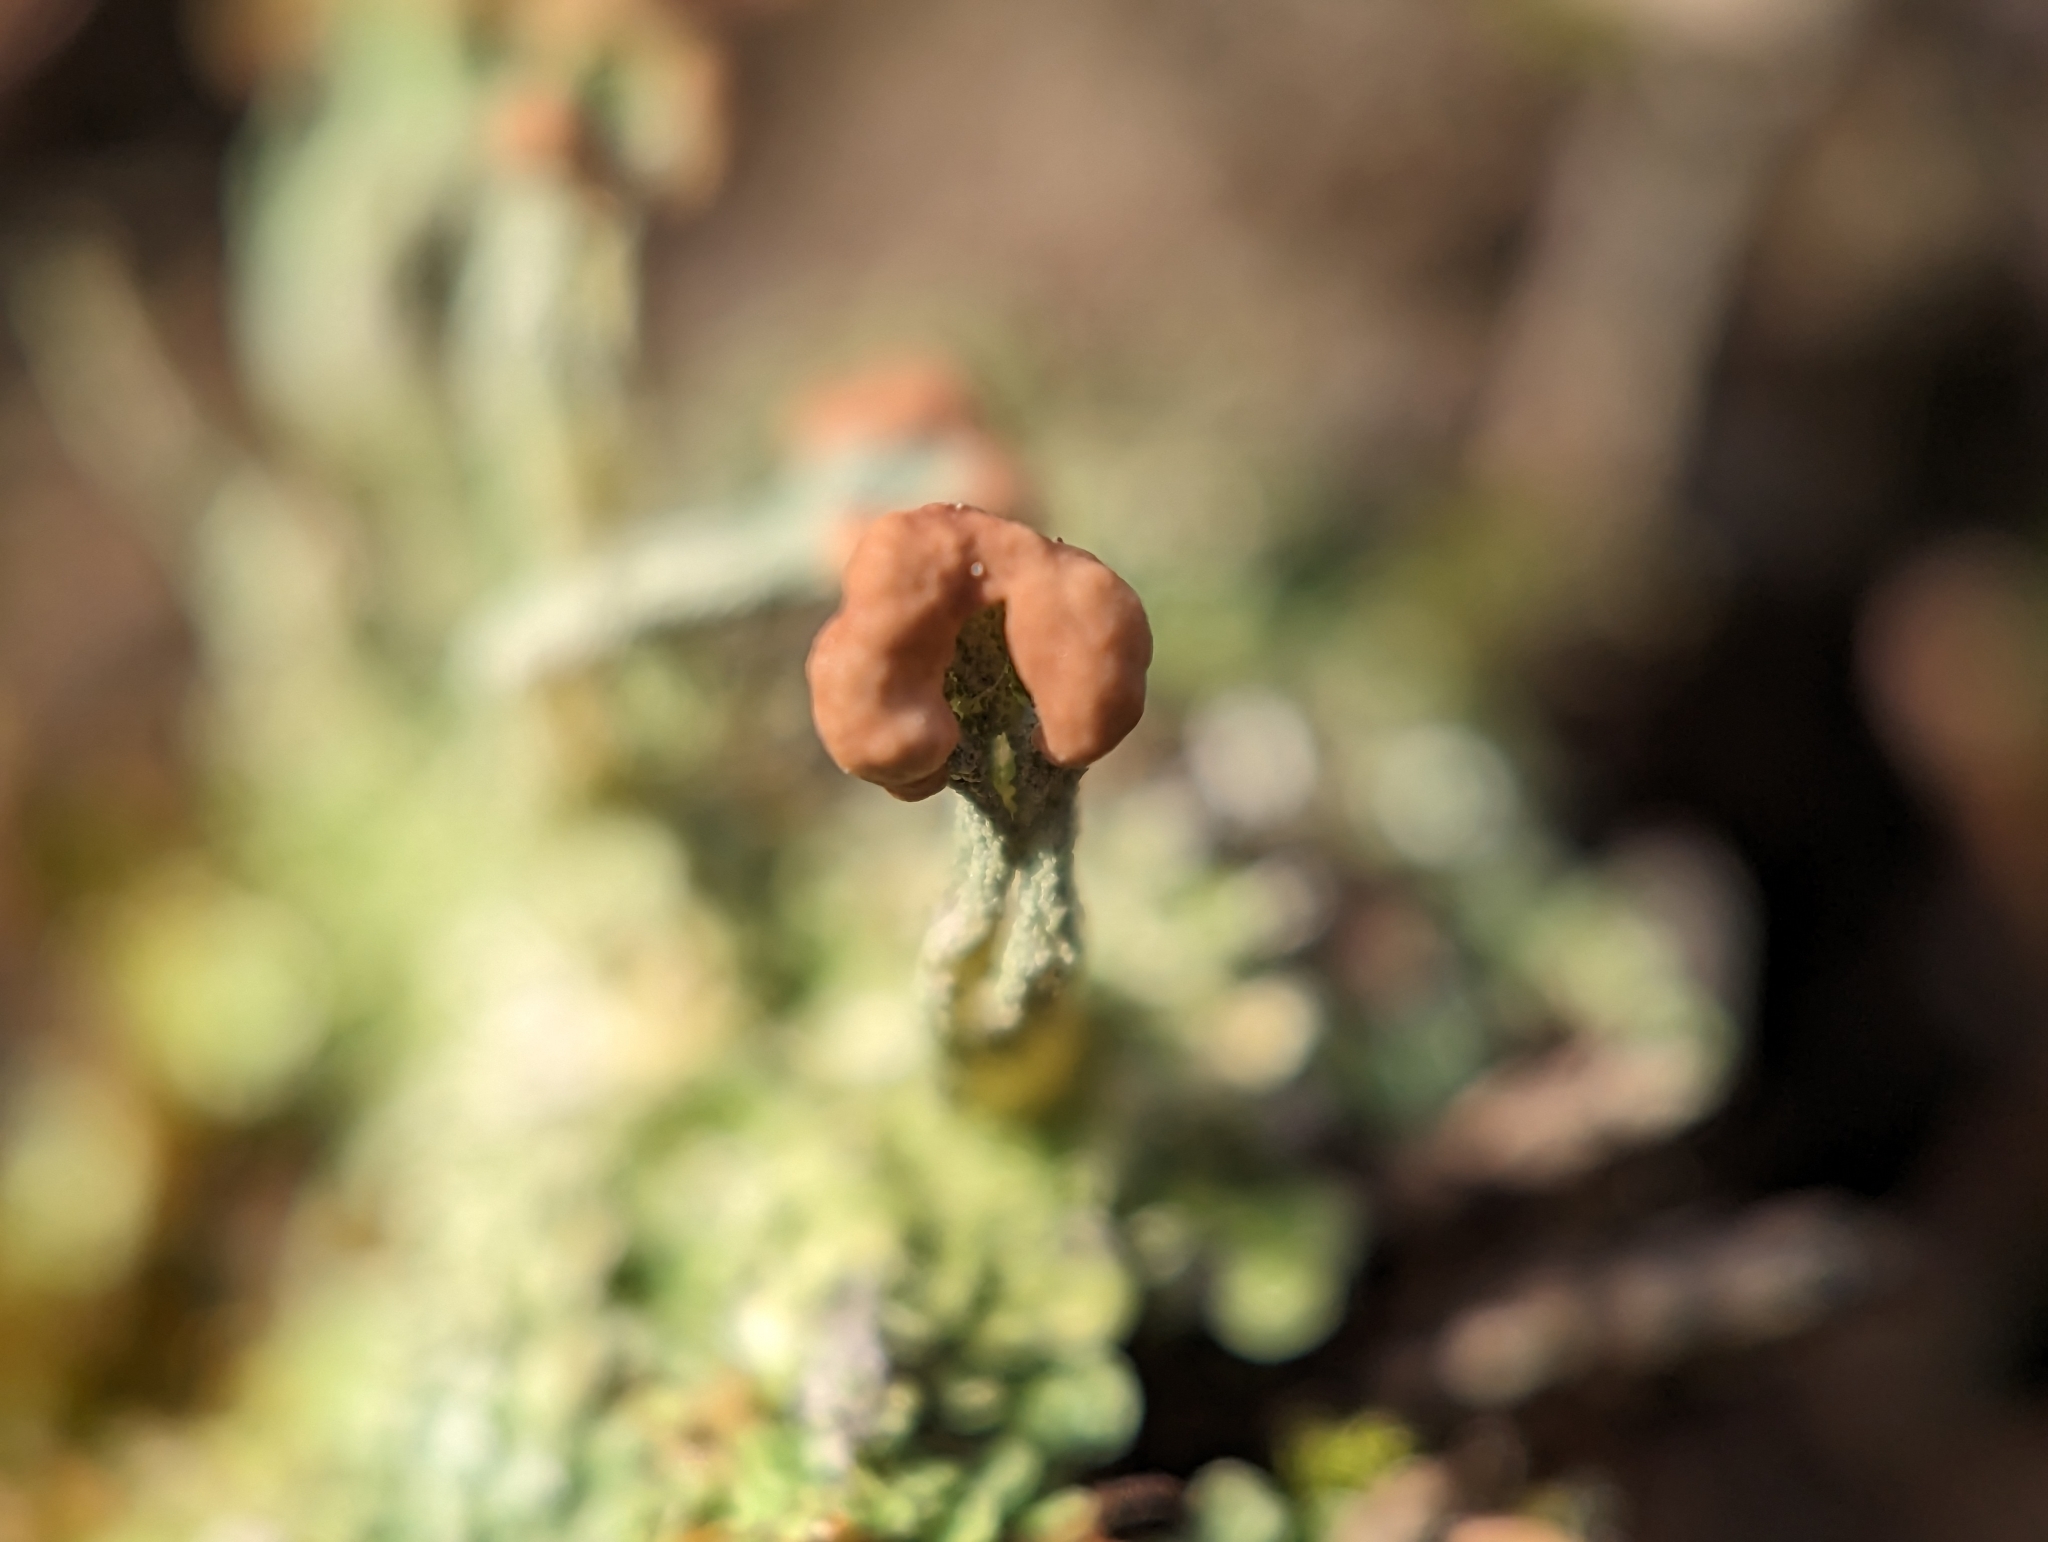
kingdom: Fungi
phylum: Ascomycota
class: Lecanoromycetes
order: Lecanorales
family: Cladoniaceae
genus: Cladonia
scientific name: Cladonia peziziformis
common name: Cup lichen
